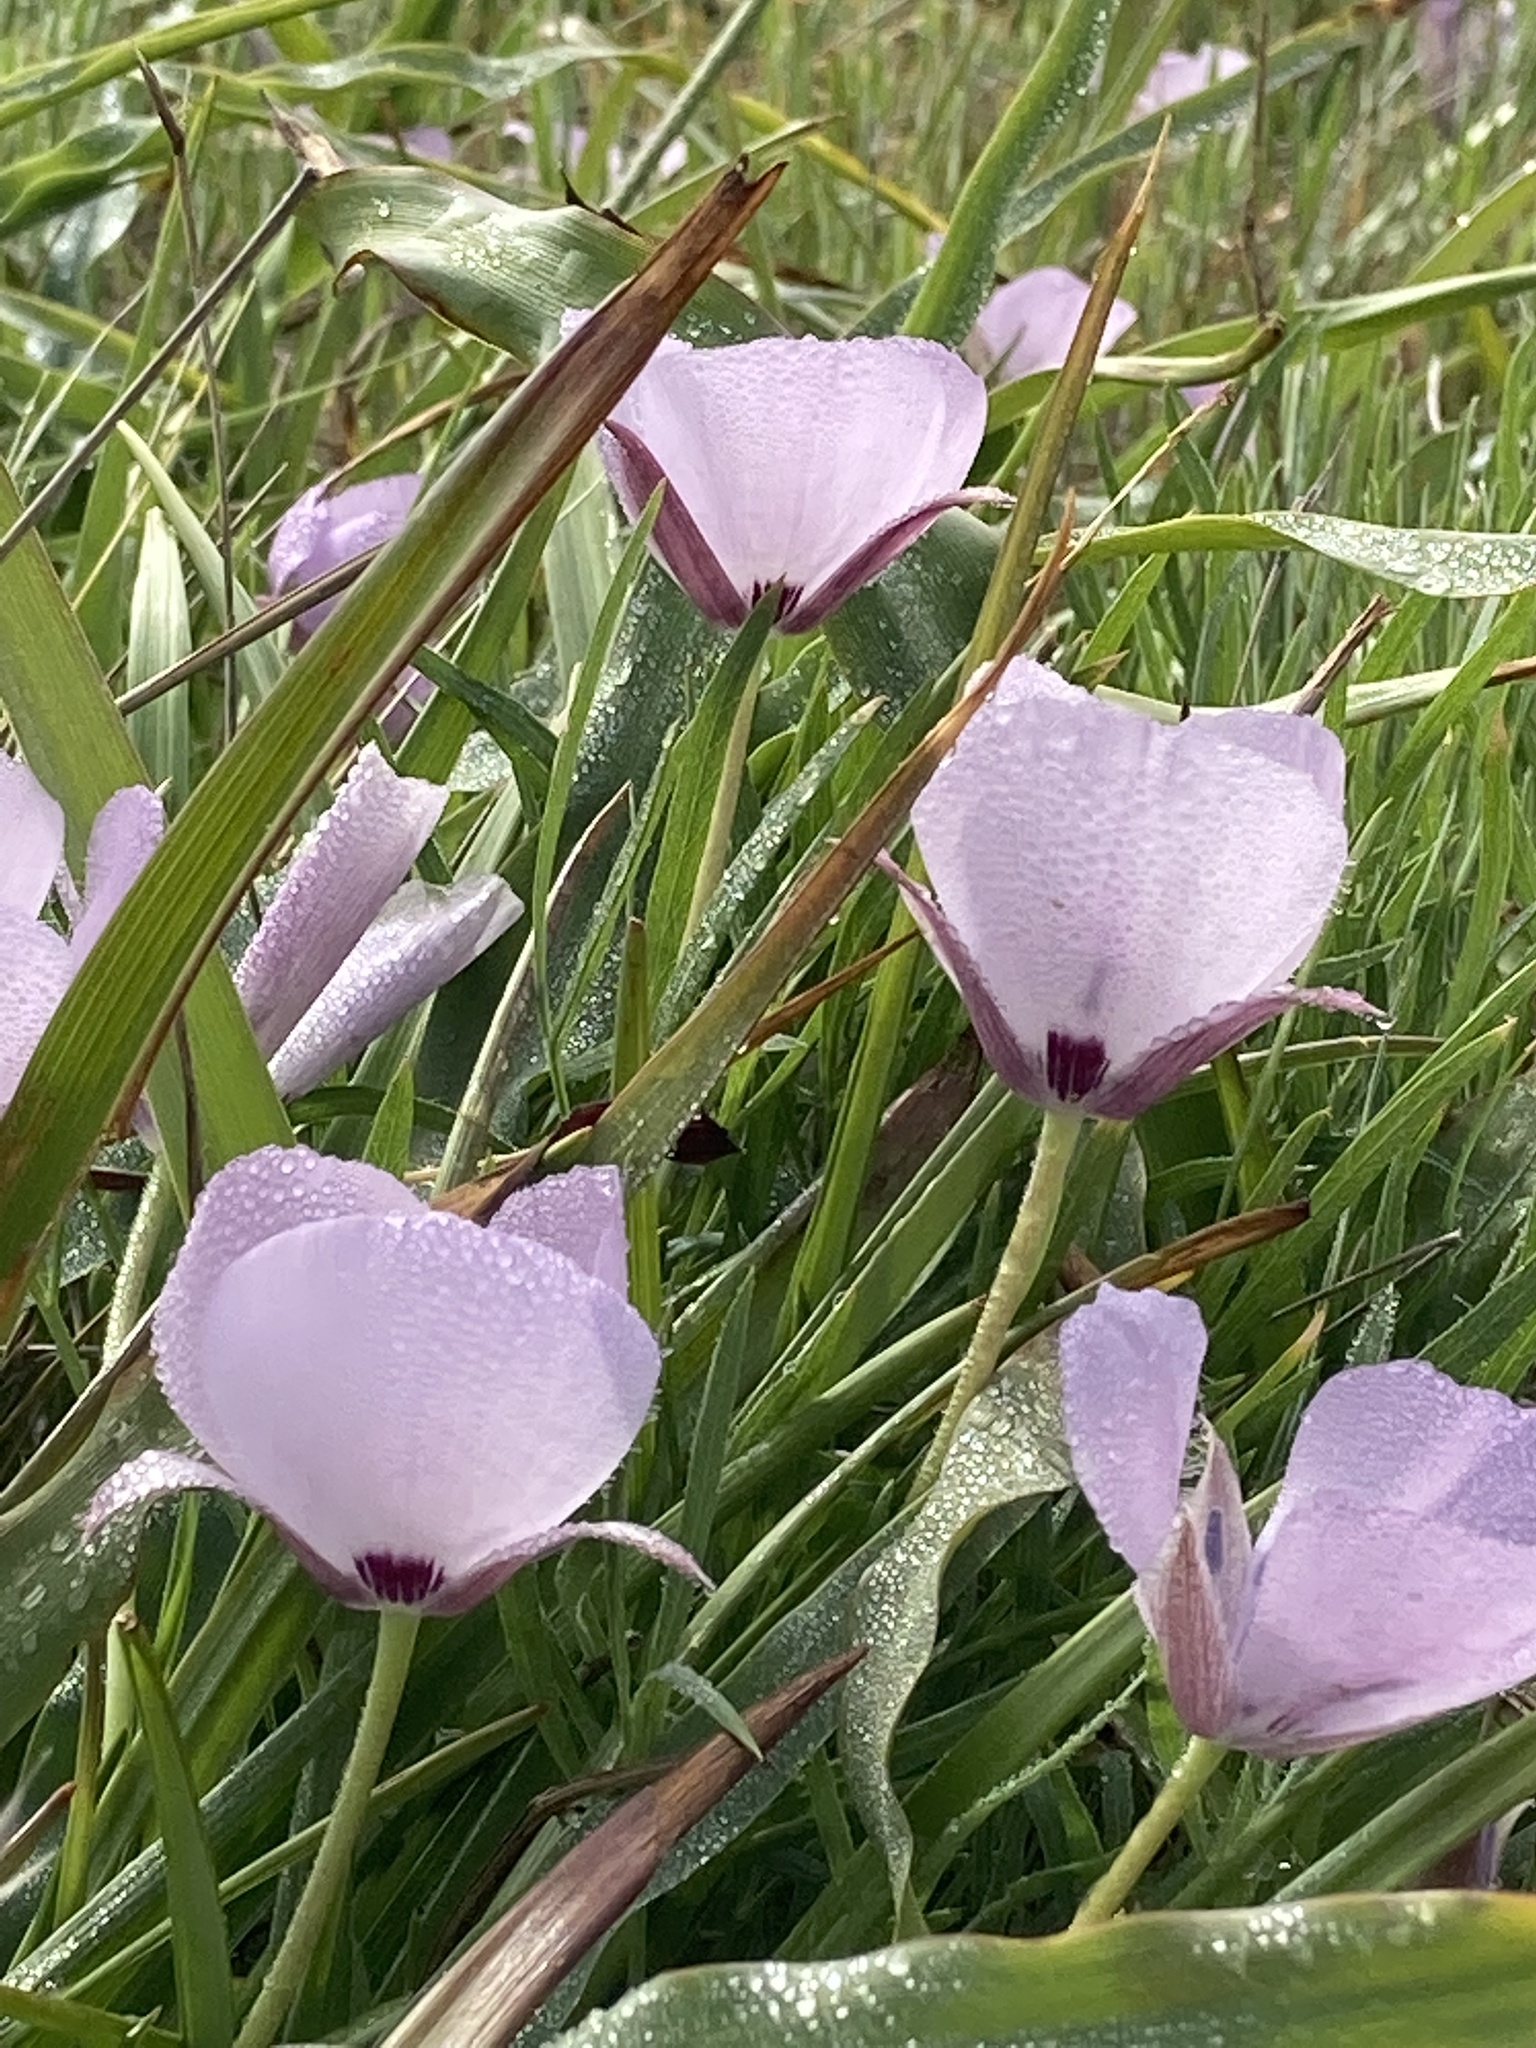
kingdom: Plantae
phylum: Tracheophyta
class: Liliopsida
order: Liliales
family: Liliaceae
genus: Calochortus
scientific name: Calochortus uniflorus
